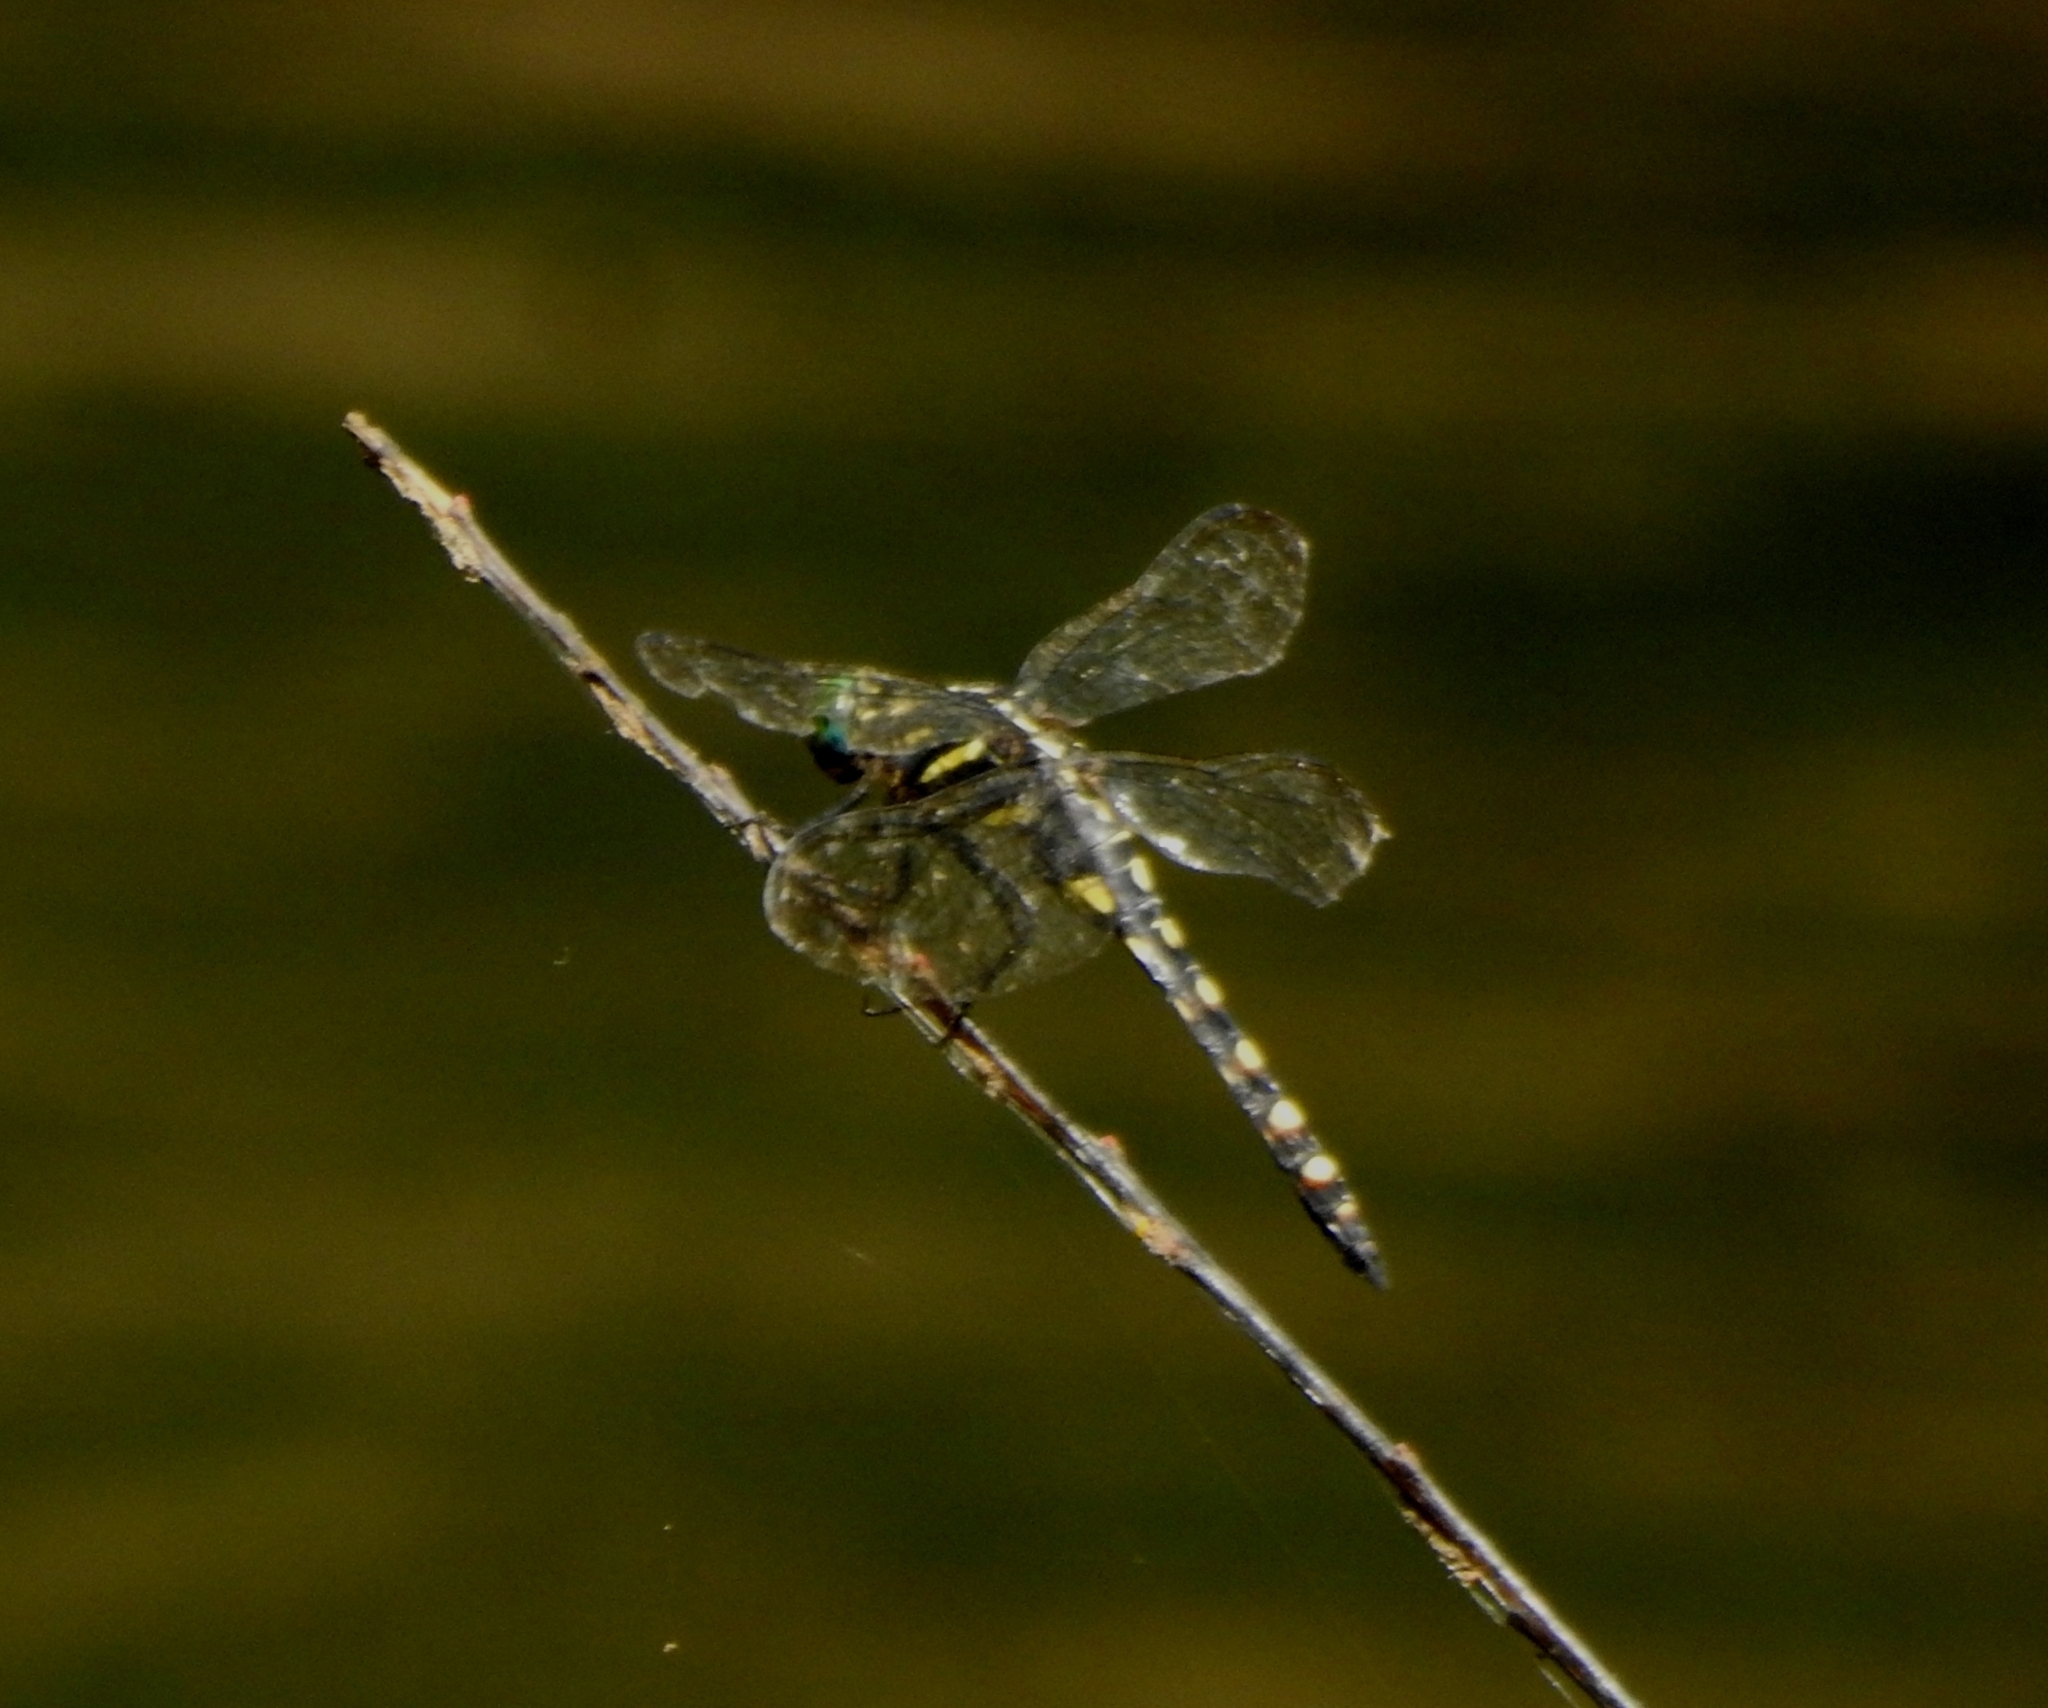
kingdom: Animalia
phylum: Arthropoda
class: Insecta
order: Odonata
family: Libellulidae
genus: Onychothemis
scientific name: Onychothemis testacea
